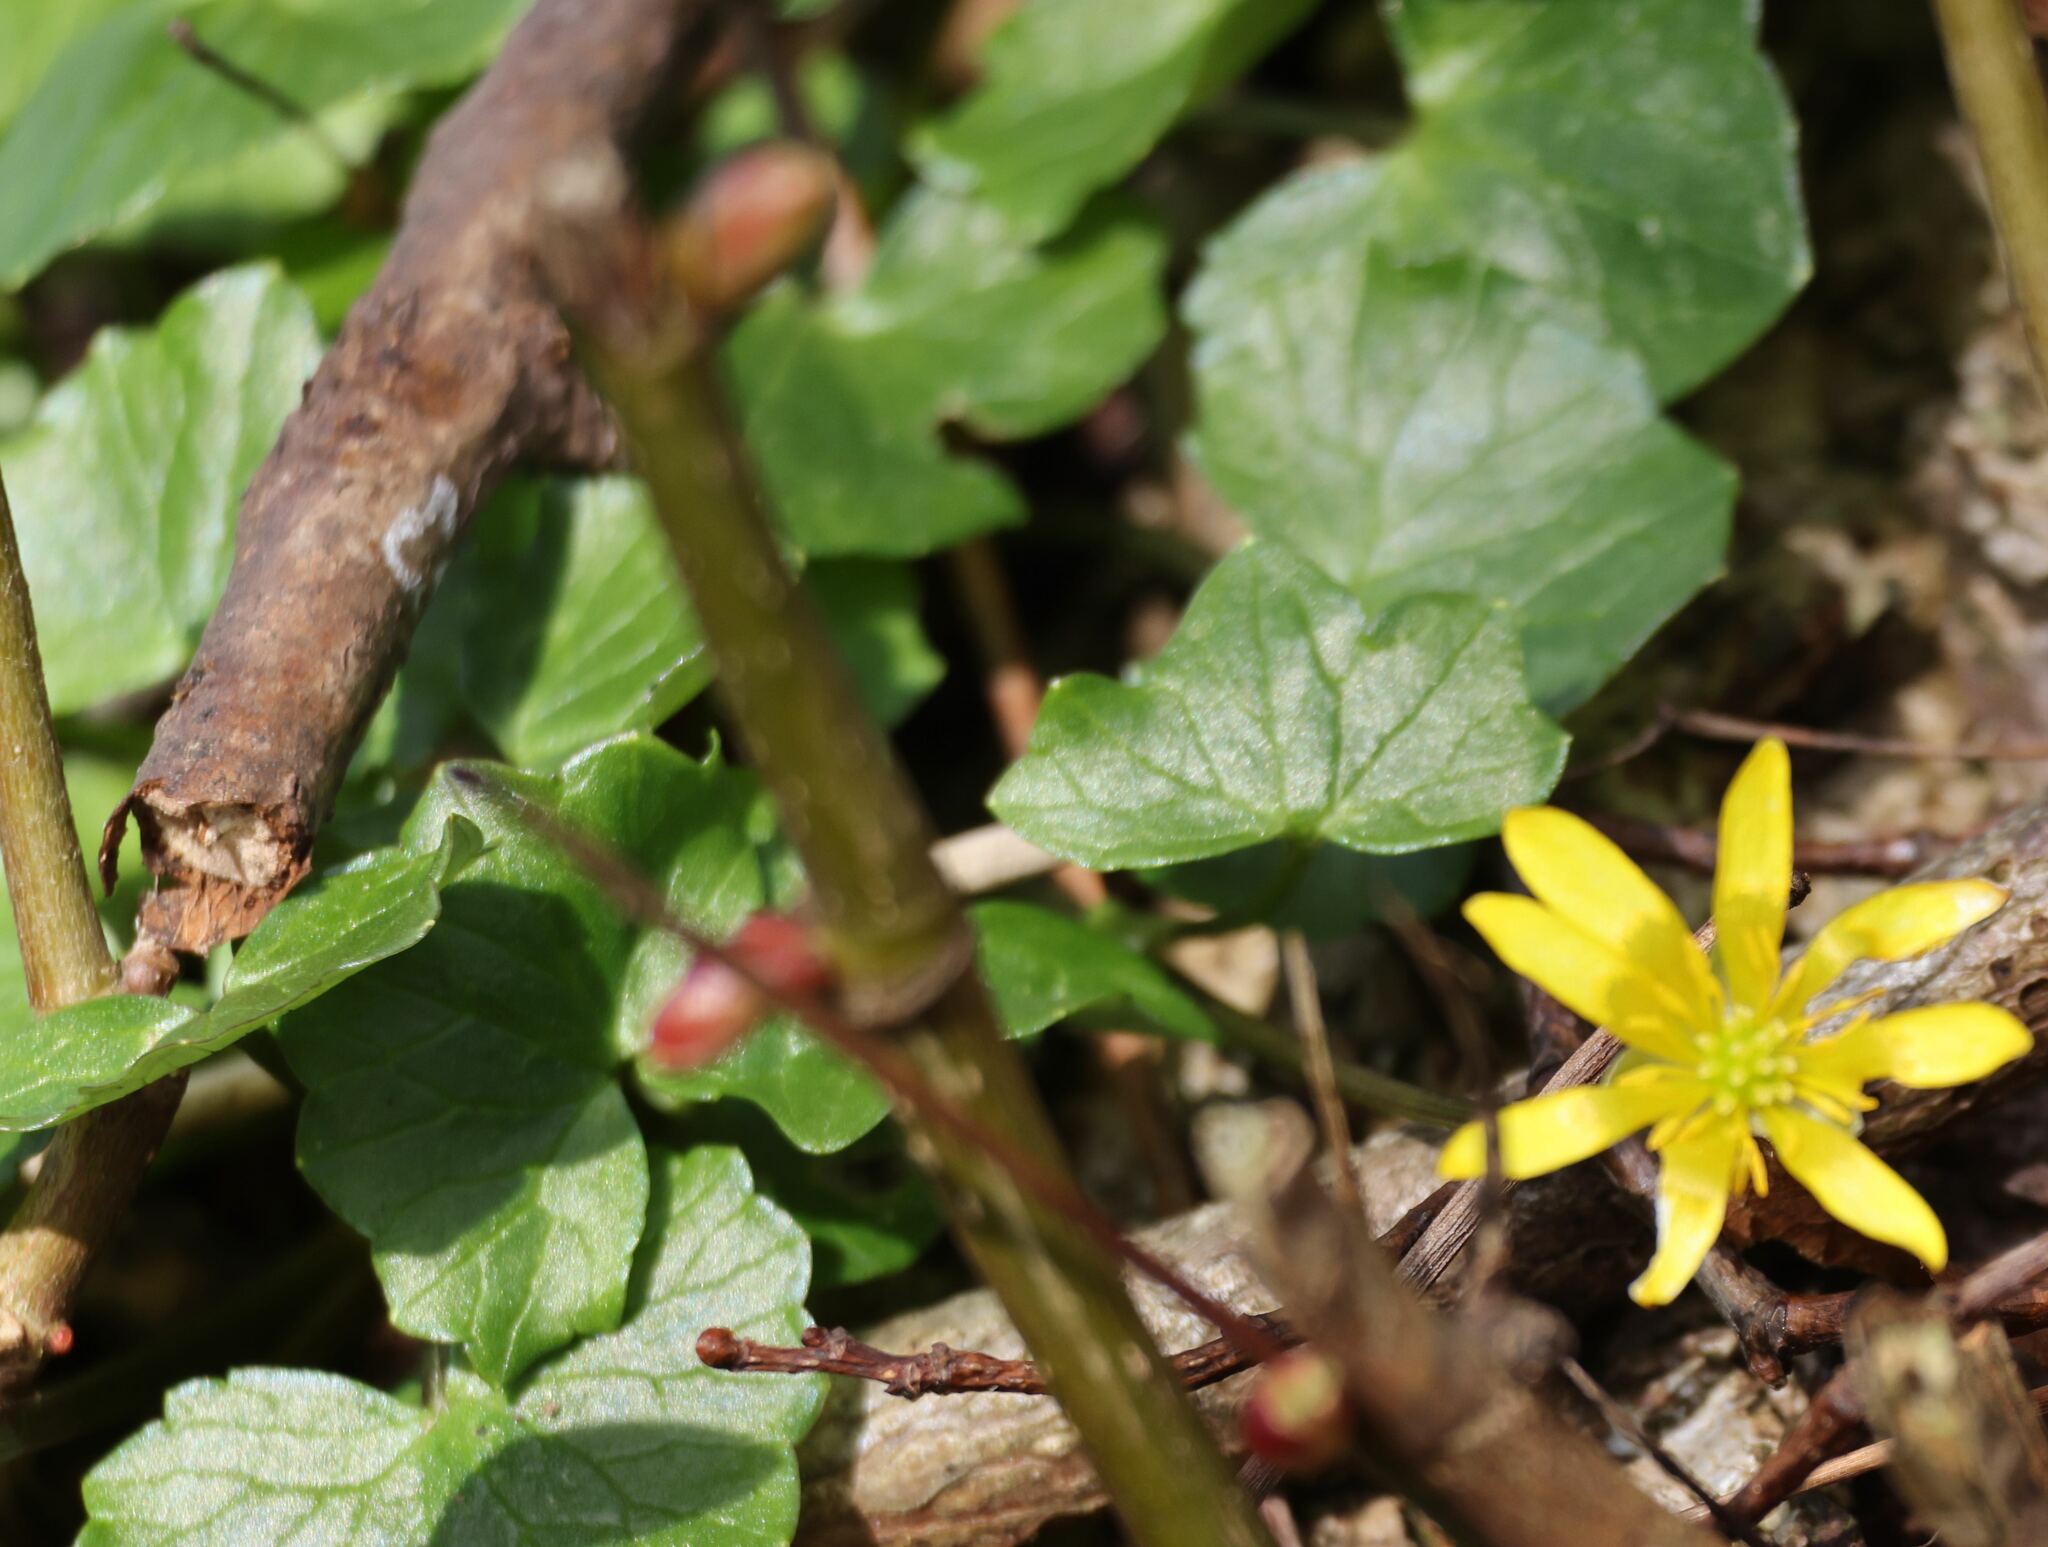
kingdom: Plantae
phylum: Tracheophyta
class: Magnoliopsida
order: Ranunculales
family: Ranunculaceae
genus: Ficaria
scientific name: Ficaria verna
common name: Lesser celandine
